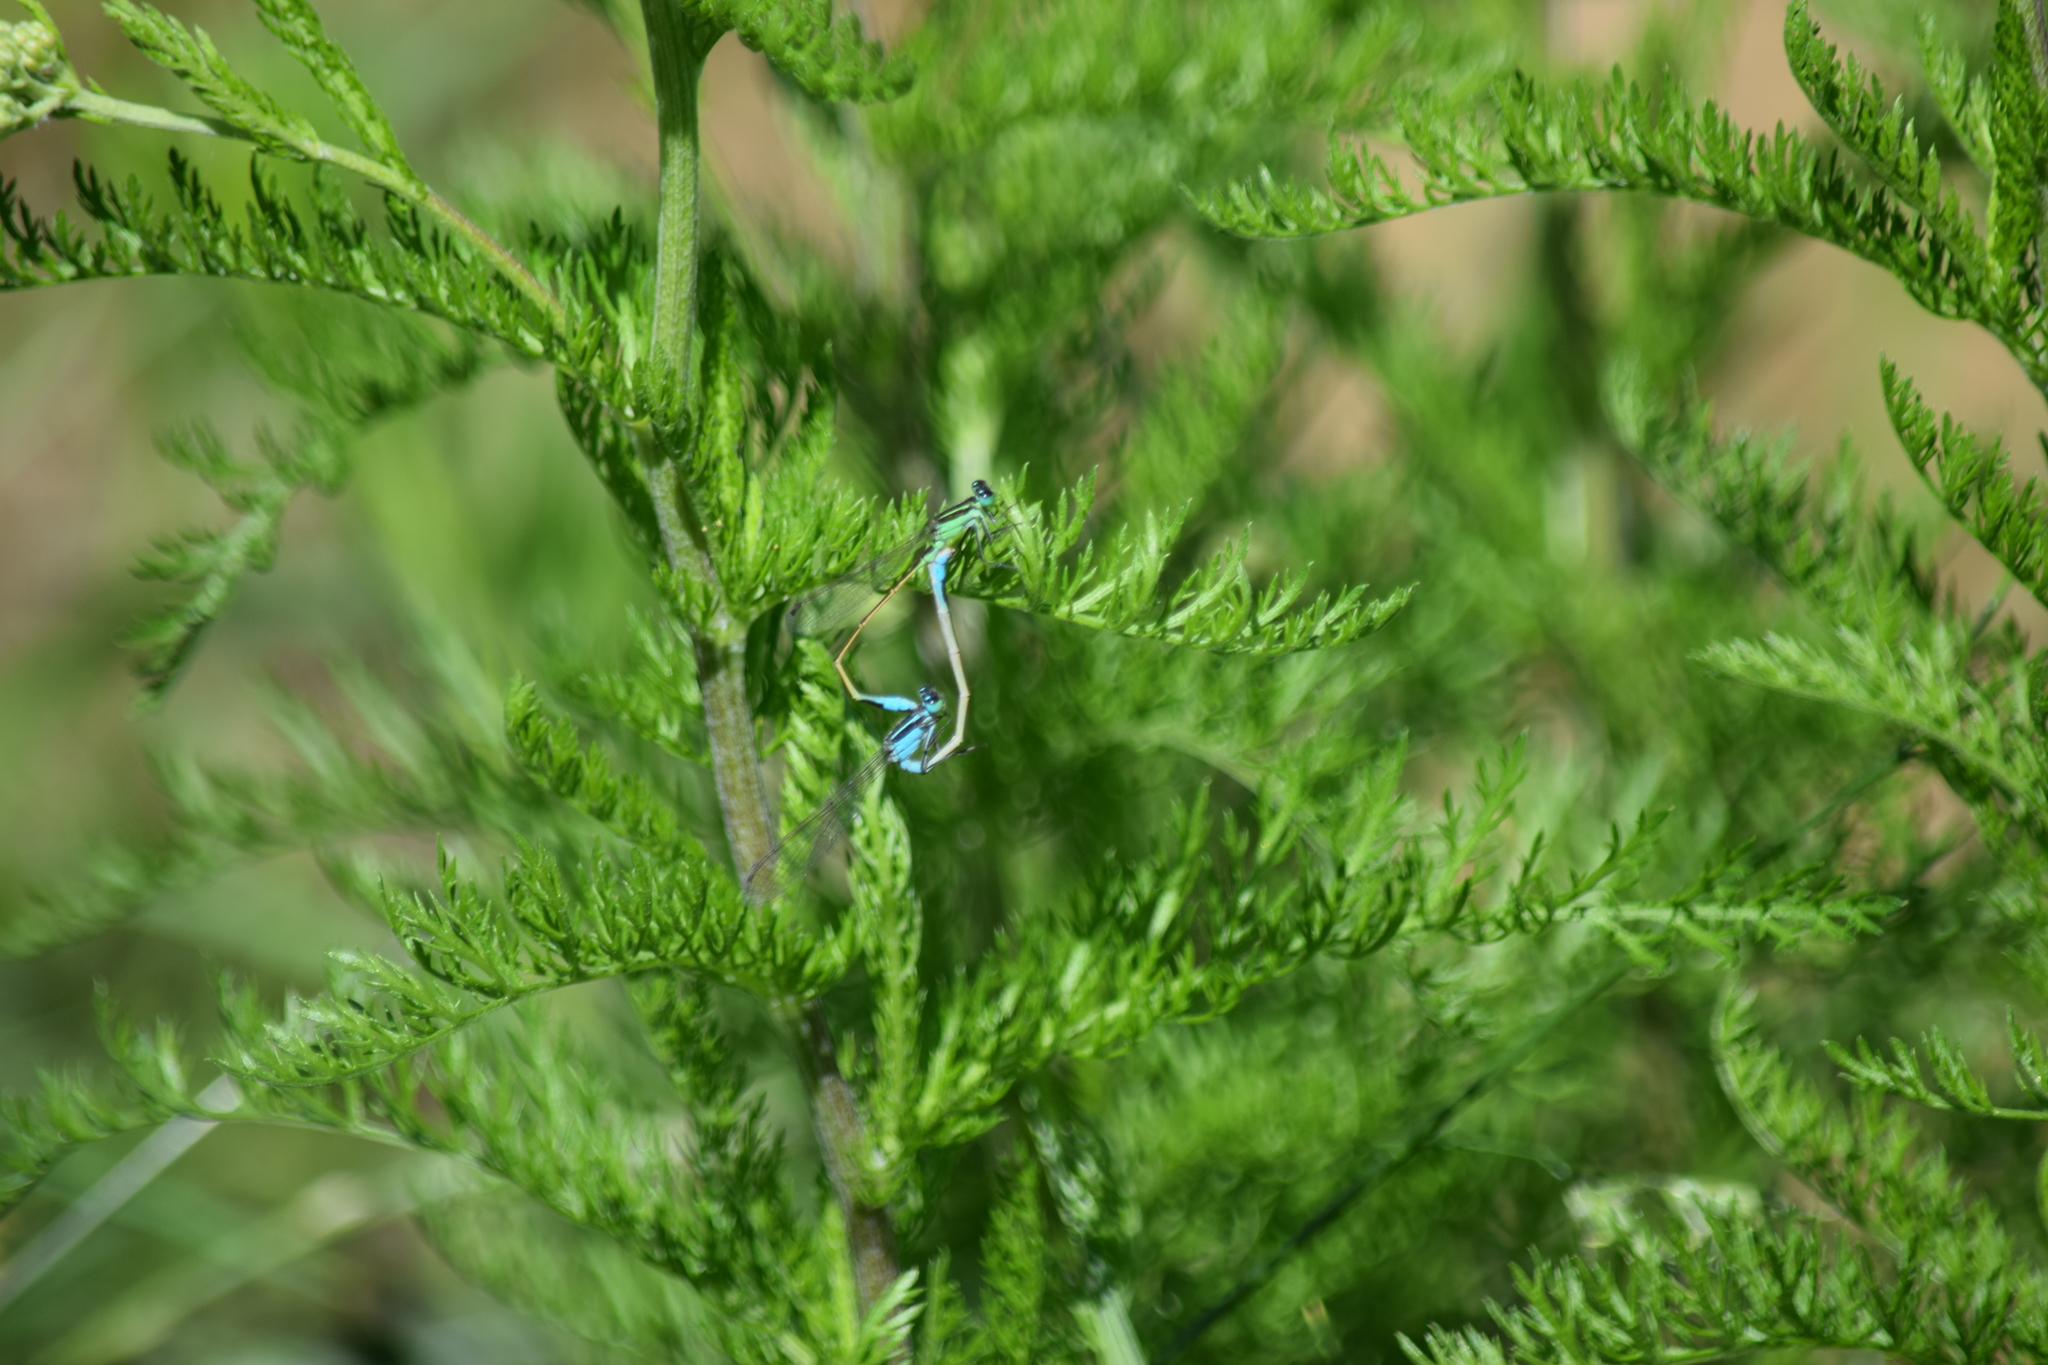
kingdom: Animalia
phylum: Arthropoda
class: Insecta
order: Odonata
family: Coenagrionidae
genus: Ischnura
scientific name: Ischnura ramburii
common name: Rambur's forktail
